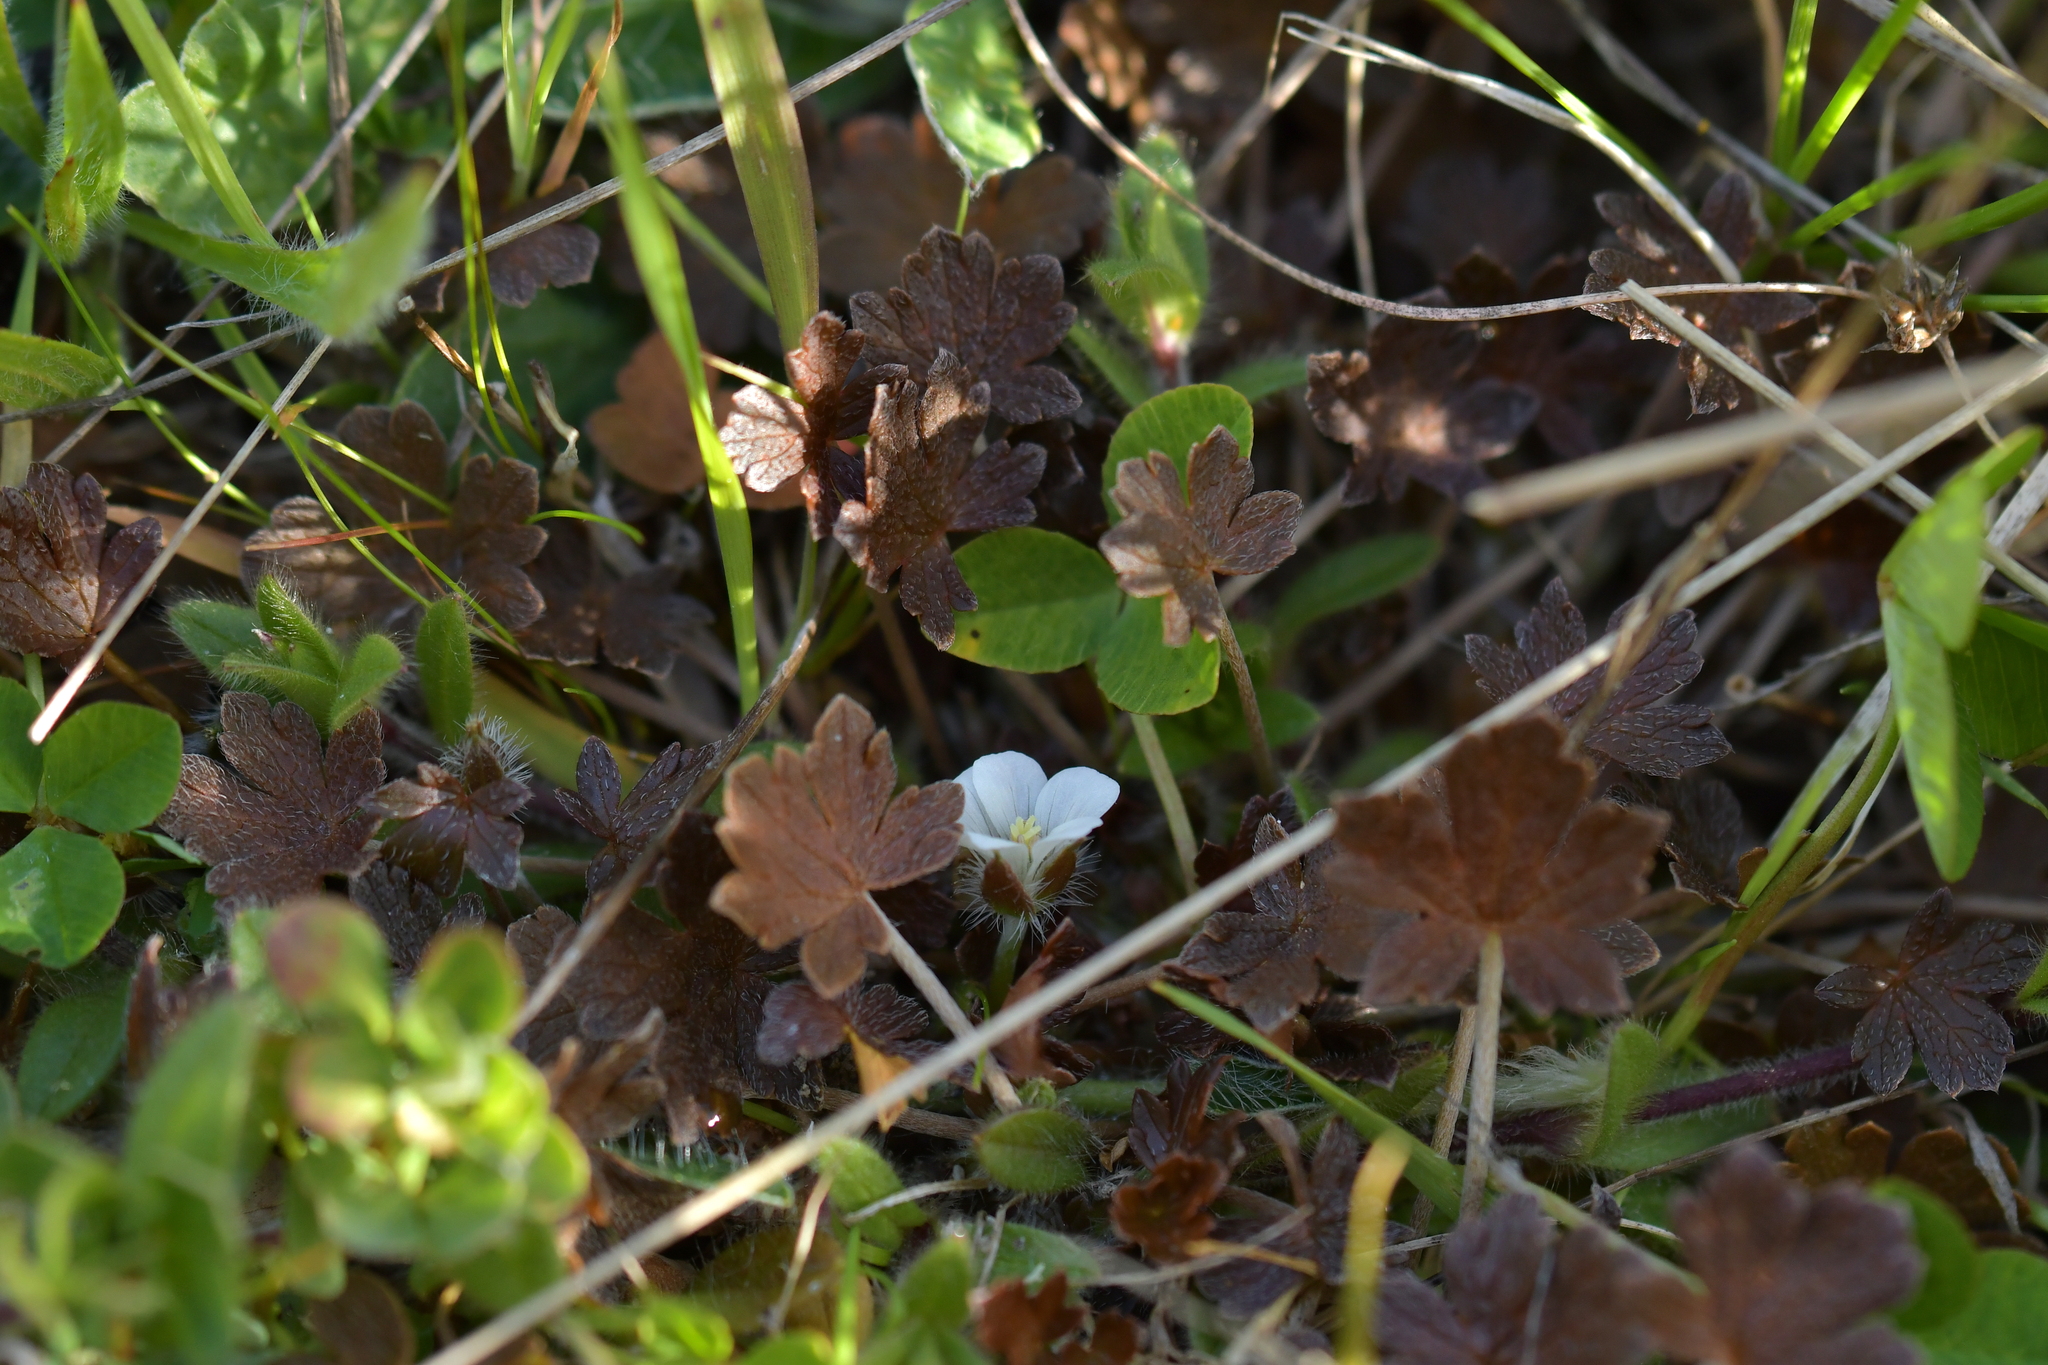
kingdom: Plantae
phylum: Tracheophyta
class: Magnoliopsida
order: Geraniales
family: Geraniaceae
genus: Geranium
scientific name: Geranium brevicaule
